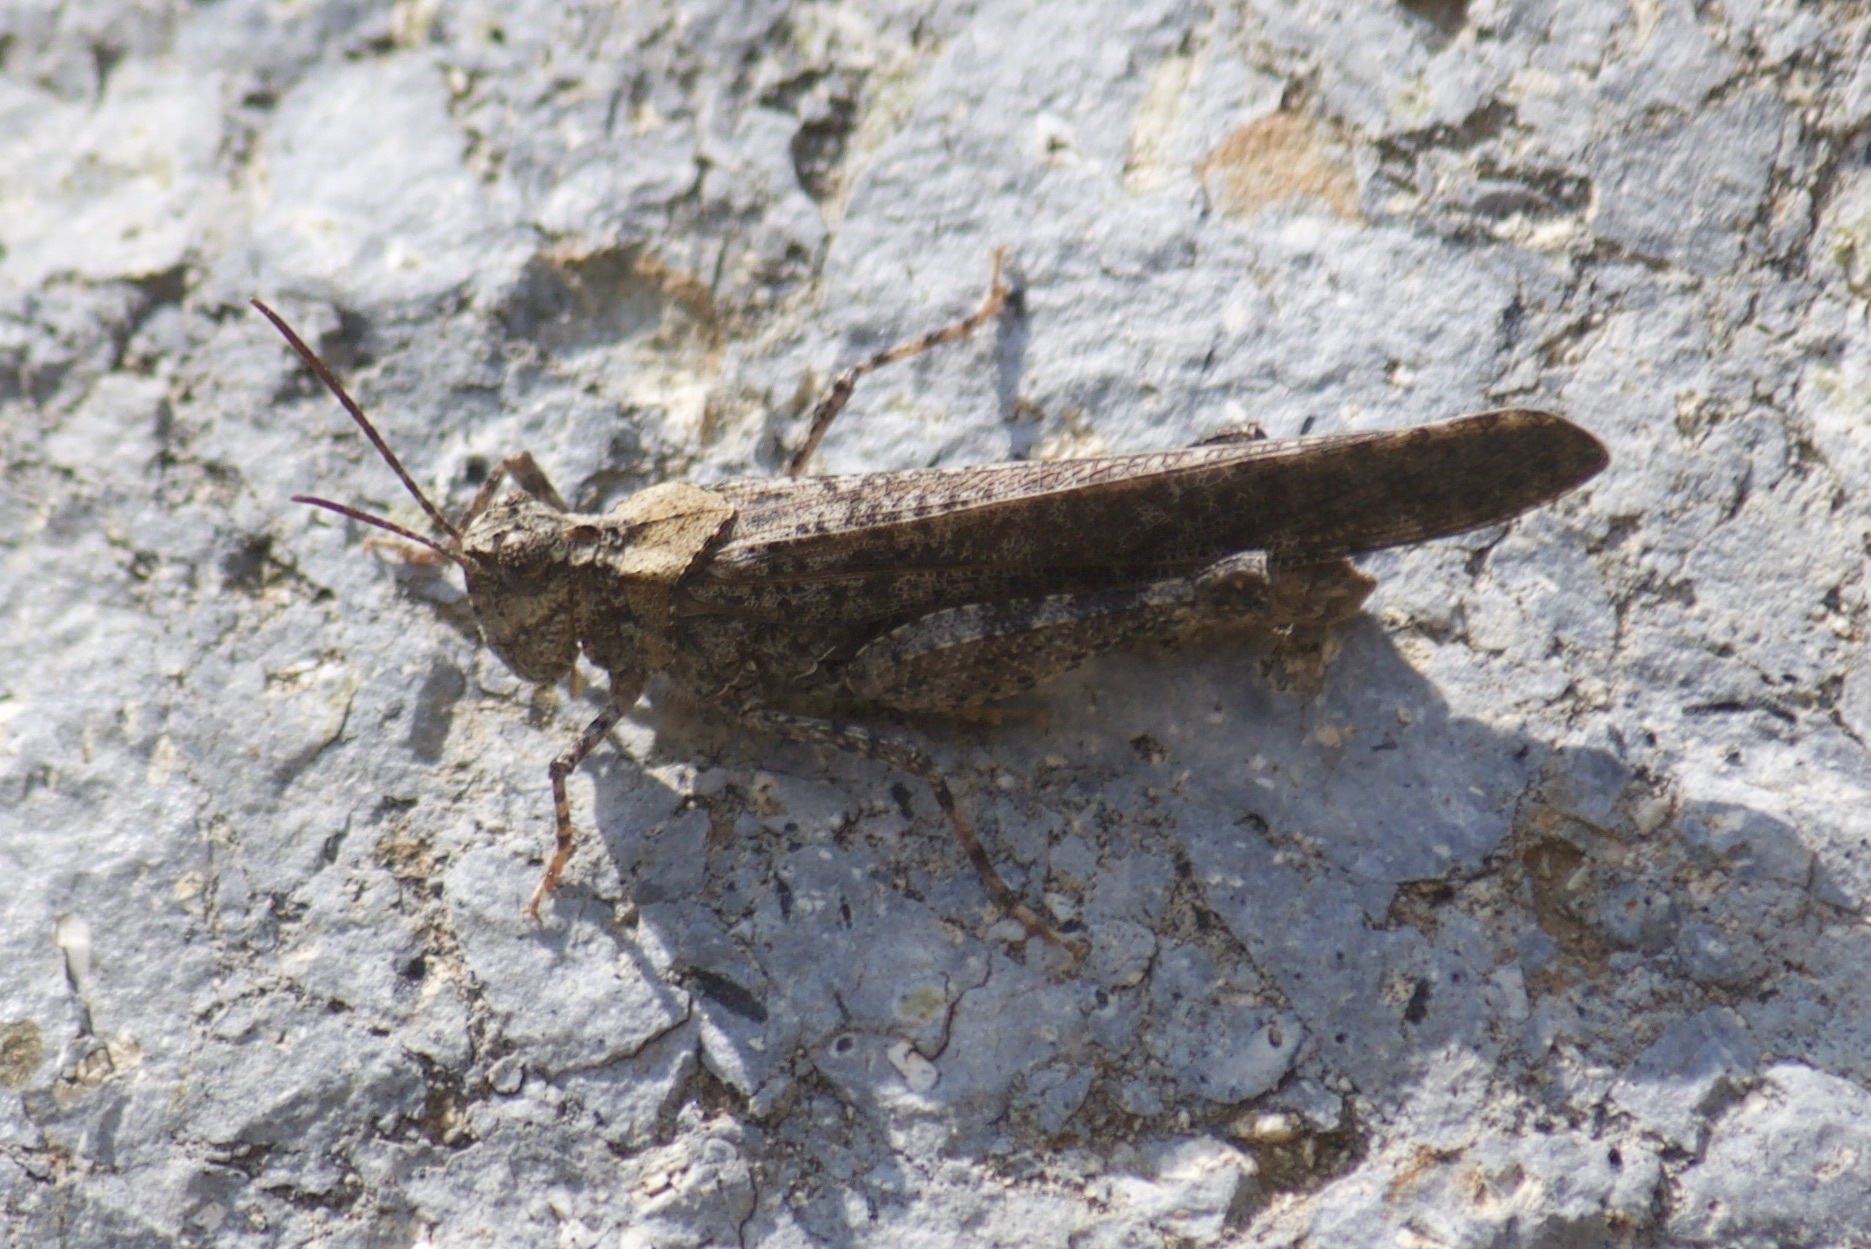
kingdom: Animalia
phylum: Arthropoda
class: Insecta
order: Orthoptera
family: Acrididae
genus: Trimerotropis
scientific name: Trimerotropis verruculata
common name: Crackling forest grasshopper
